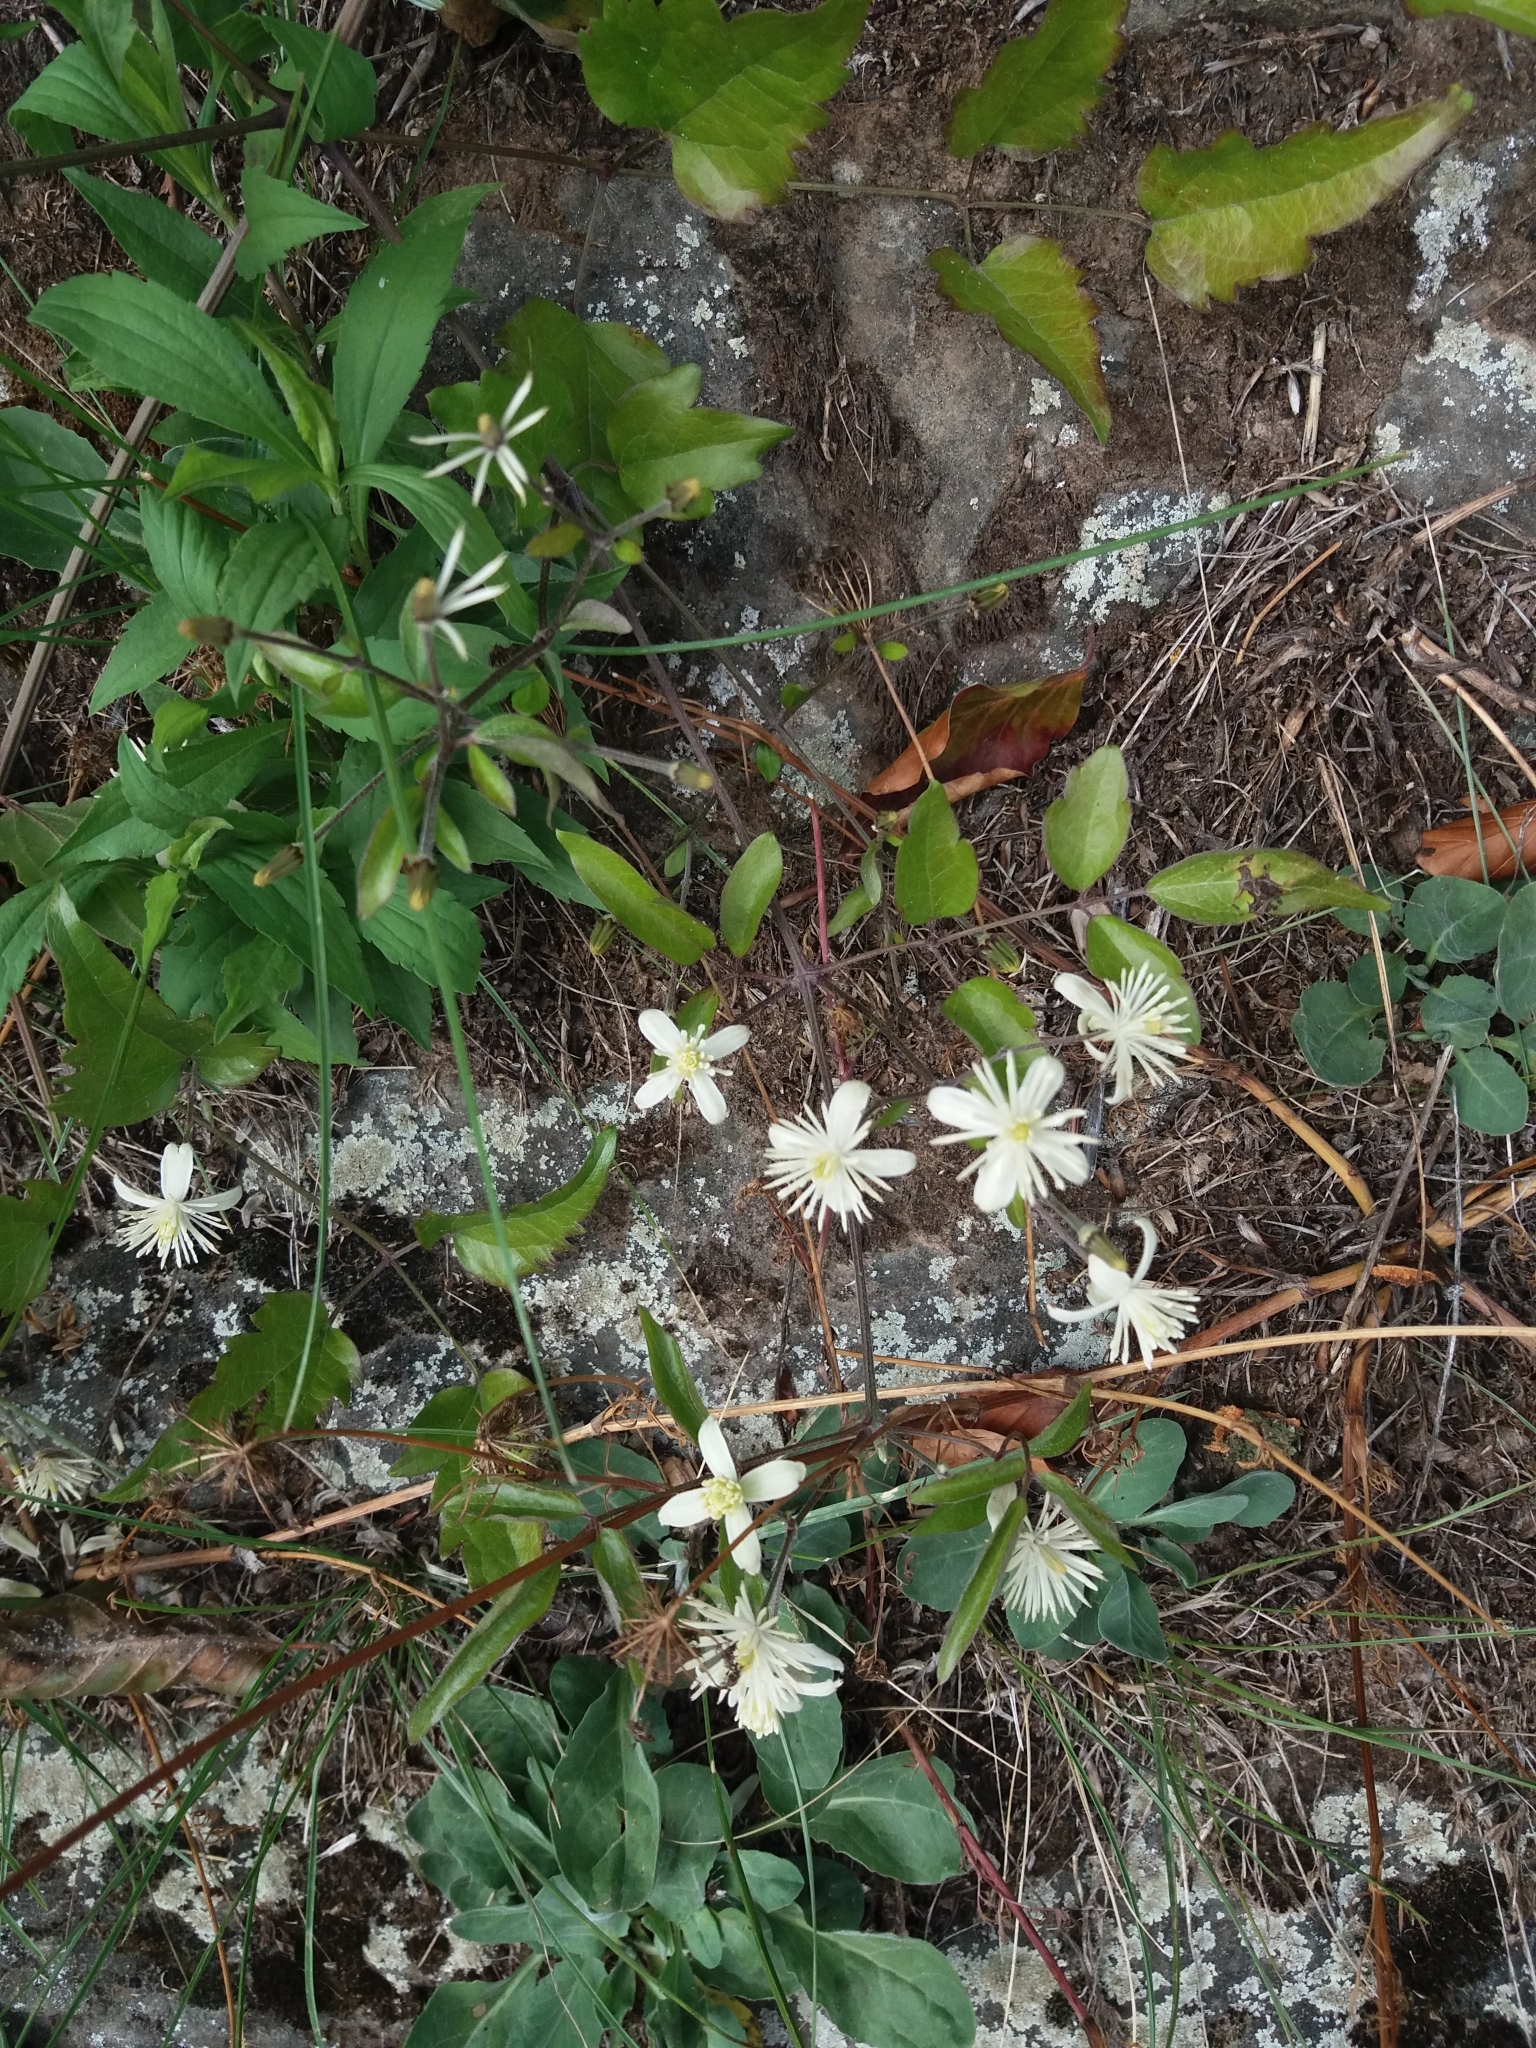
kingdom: Plantae
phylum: Tracheophyta
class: Magnoliopsida
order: Ranunculales
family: Ranunculaceae
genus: Clematis
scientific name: Clematis vitalba
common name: Evergreen clematis
